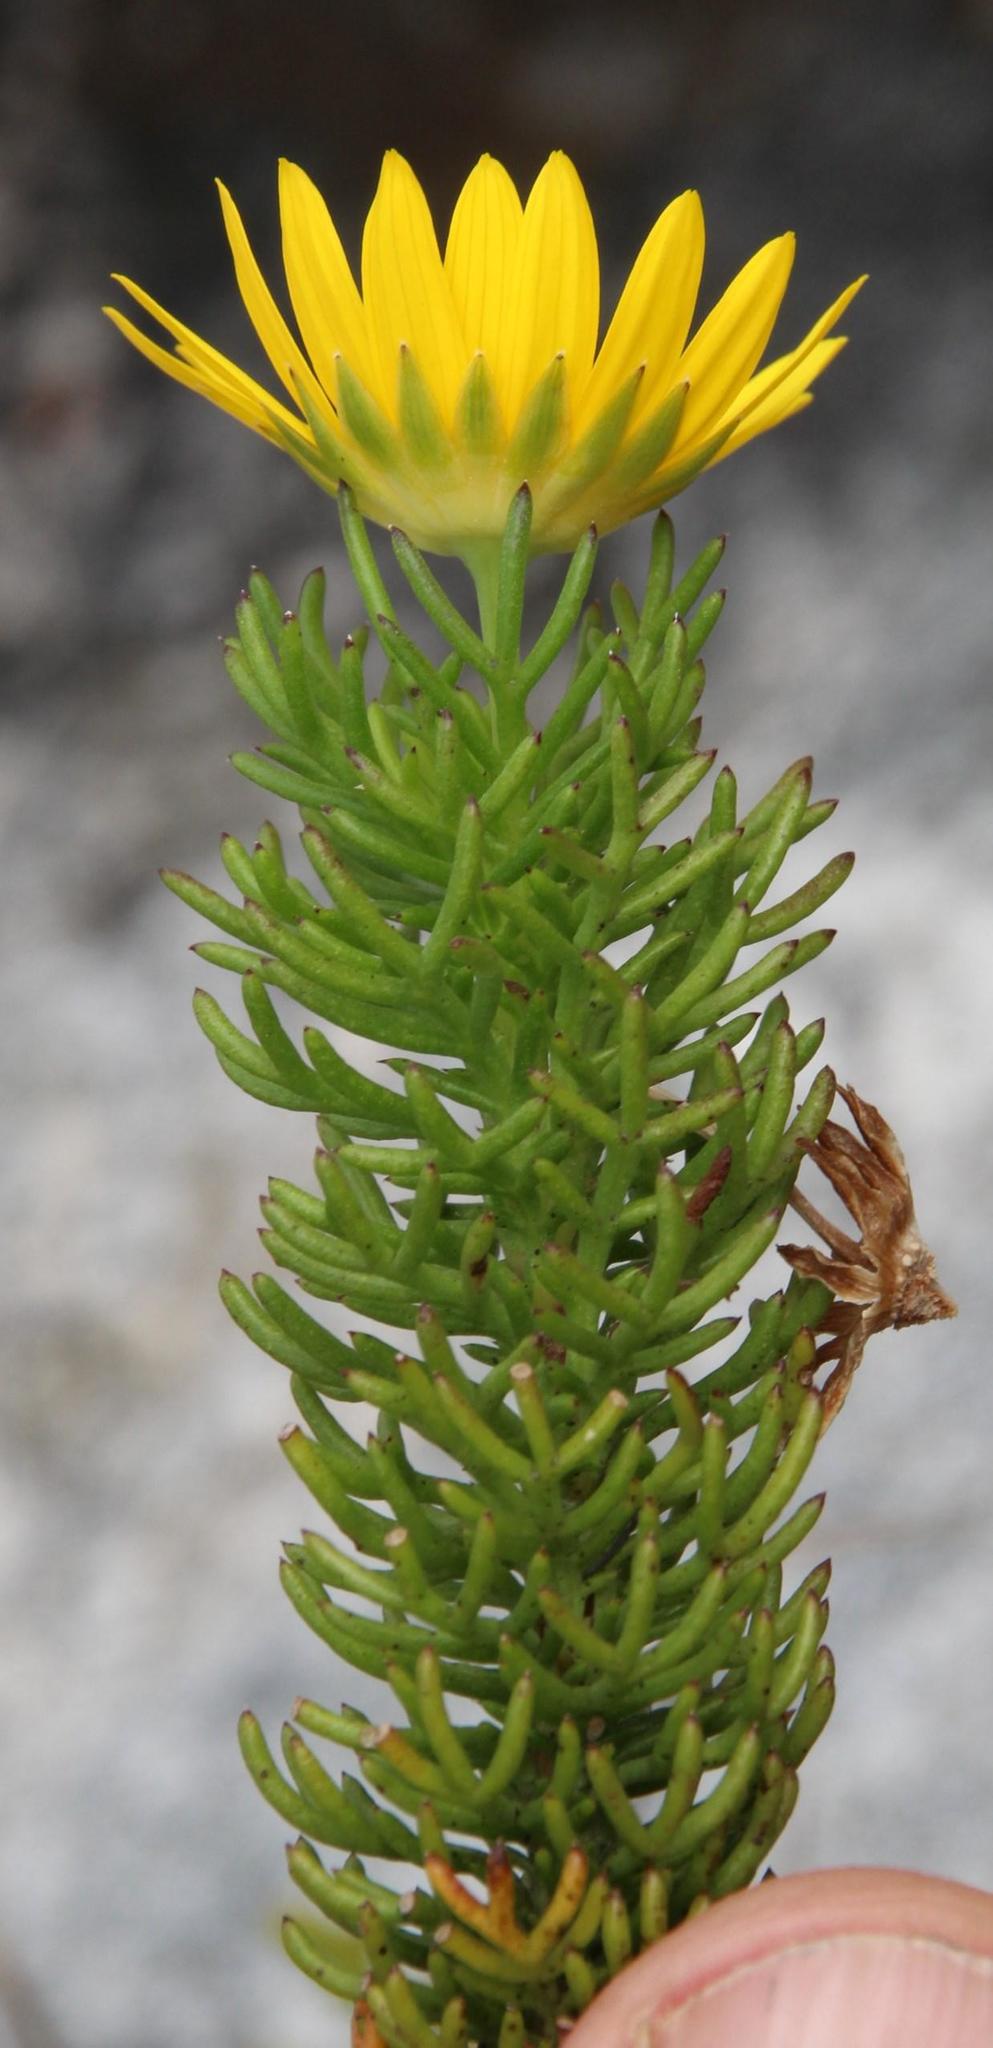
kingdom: Plantae
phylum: Tracheophyta
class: Magnoliopsida
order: Asterales
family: Asteraceae
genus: Euryops
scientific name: Euryops abrotanifolius
